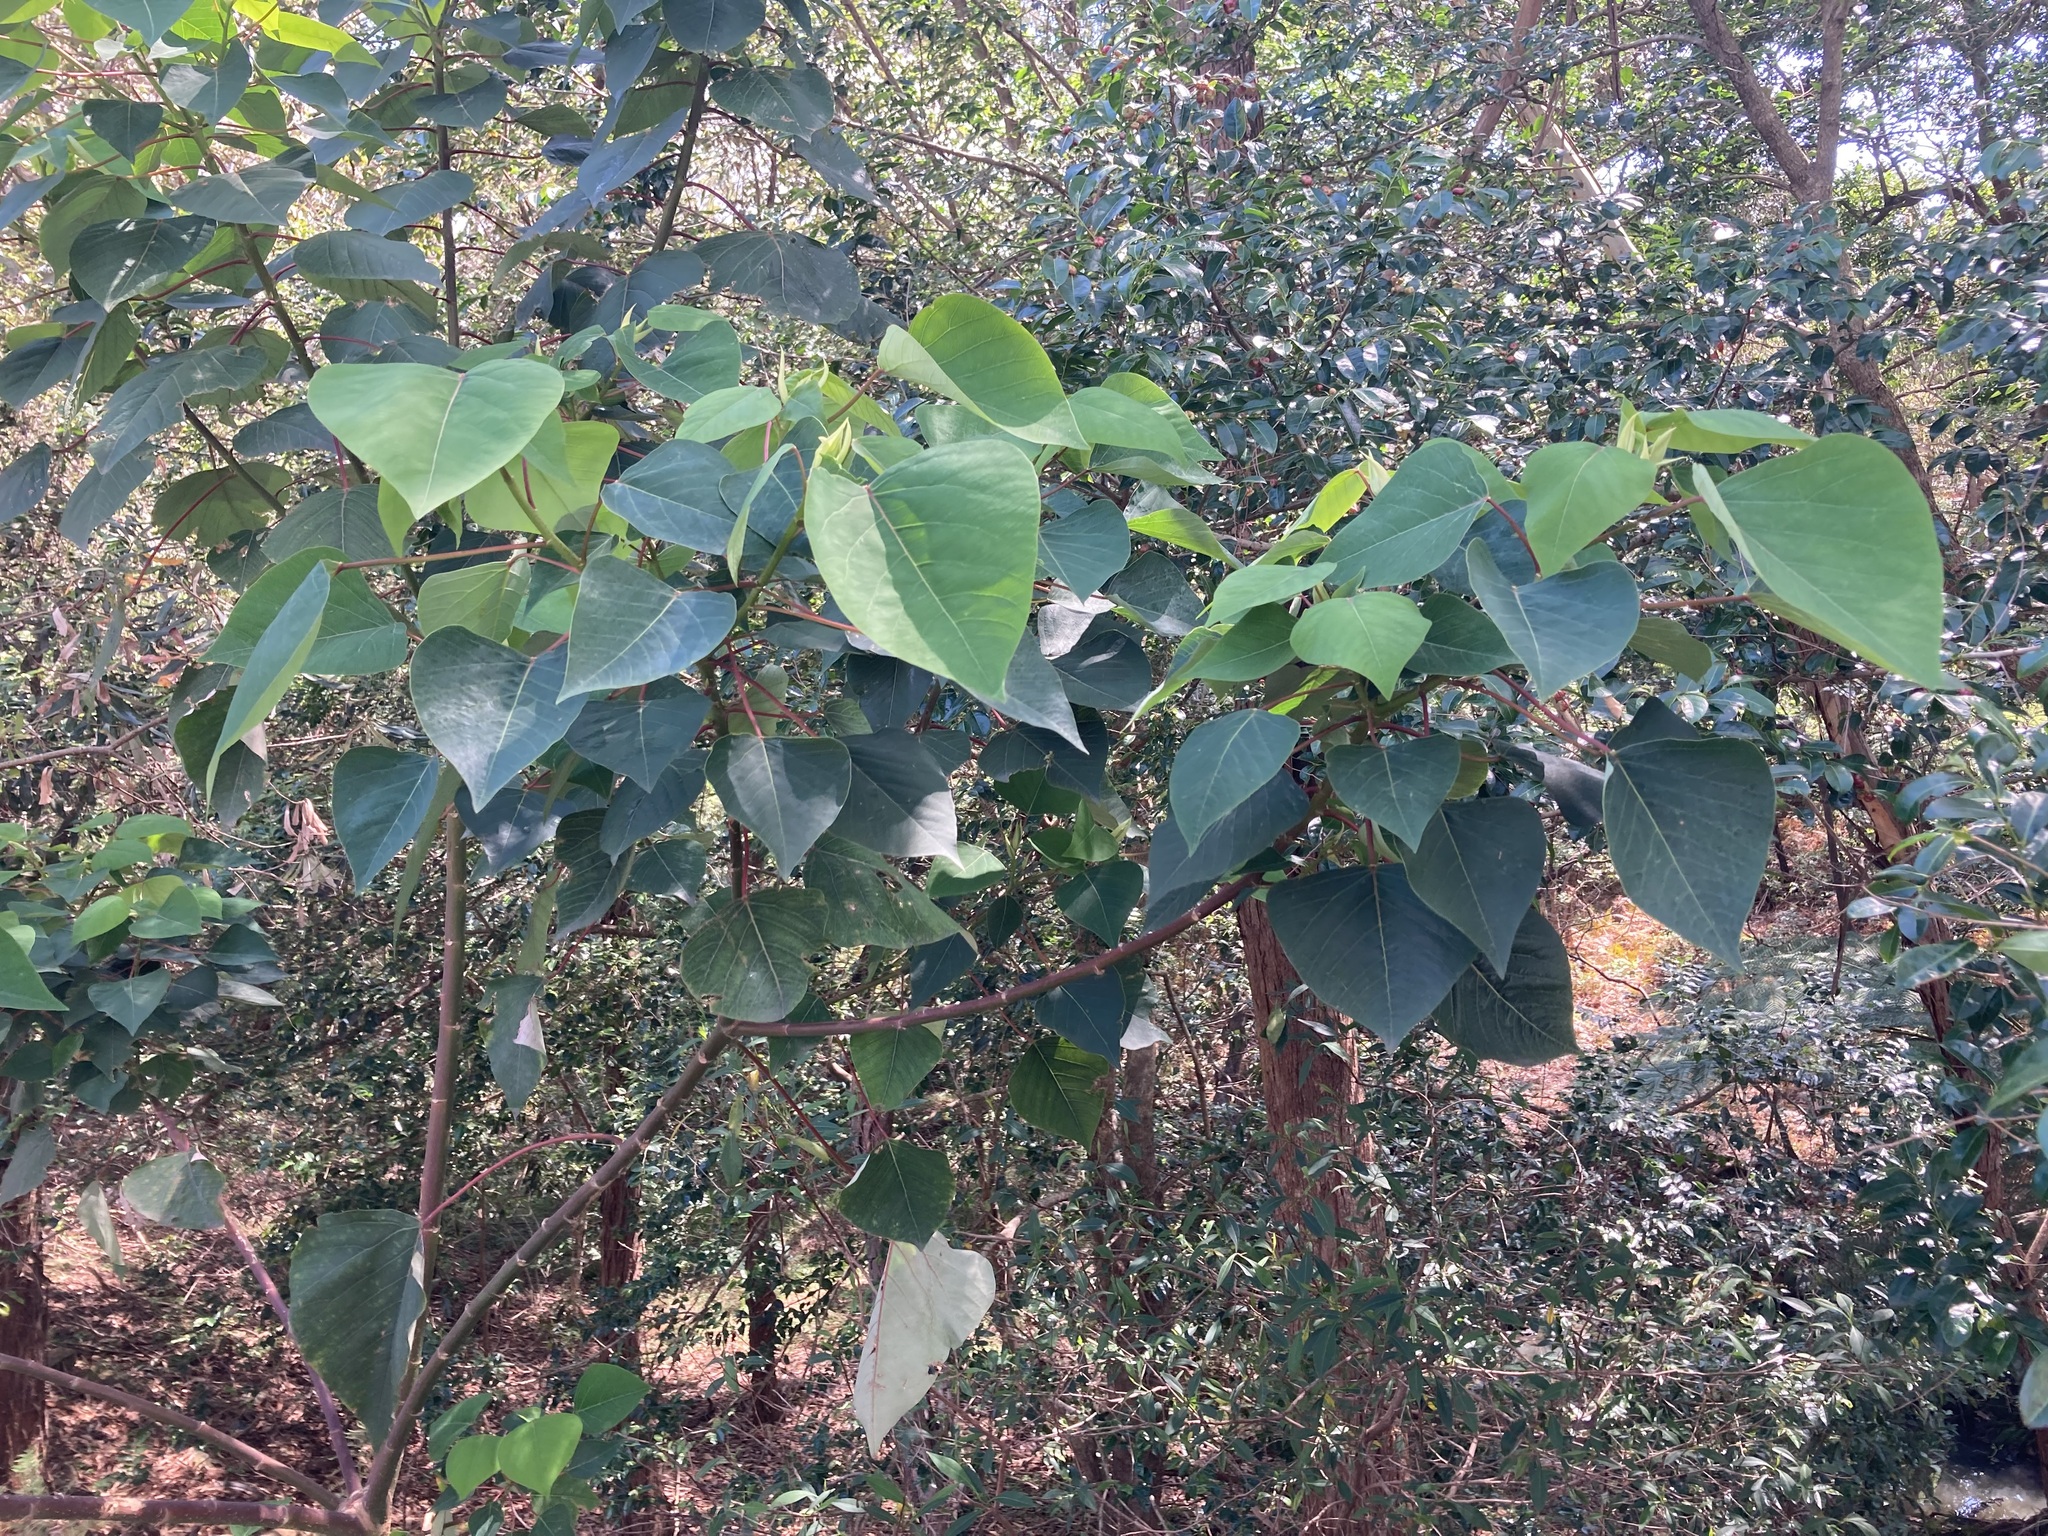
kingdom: Plantae
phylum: Tracheophyta
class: Magnoliopsida
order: Malpighiales
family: Euphorbiaceae
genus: Homalanthus
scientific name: Homalanthus populifolius
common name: Queensland poplar
